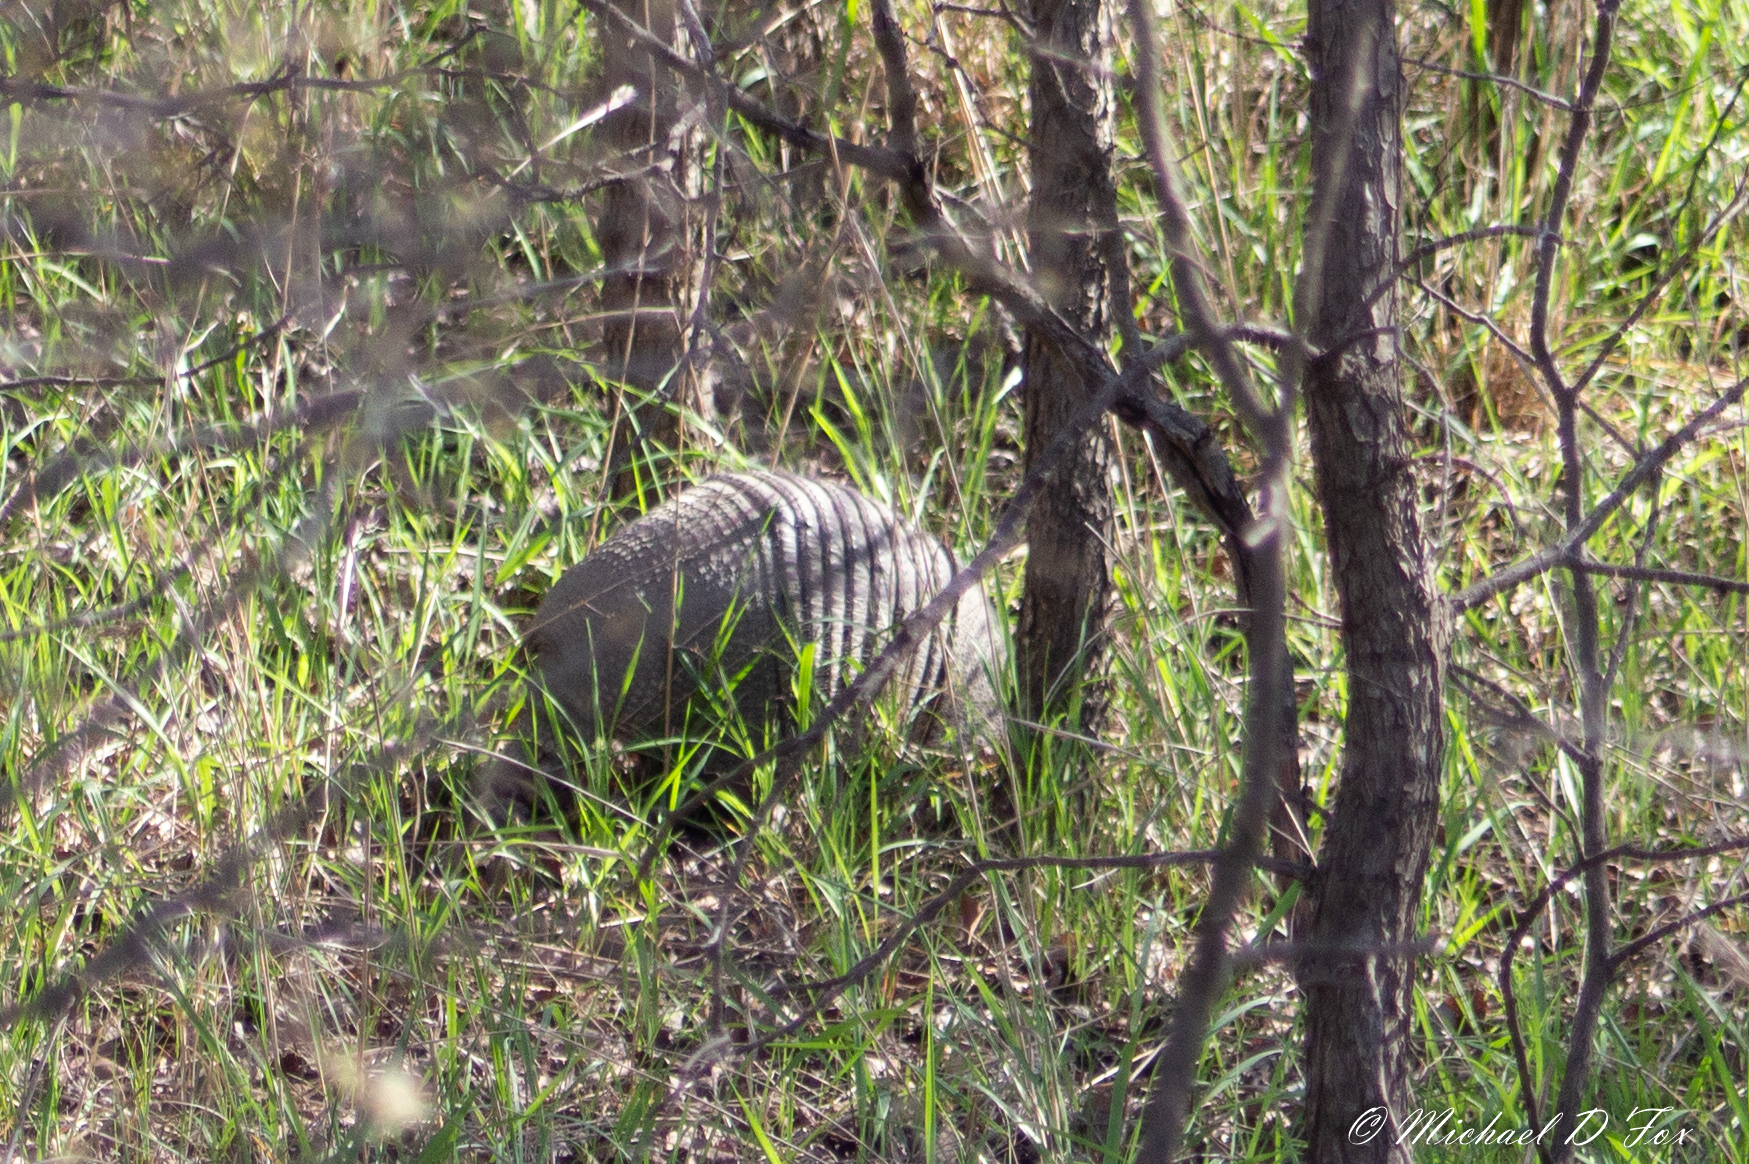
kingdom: Animalia
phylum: Chordata
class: Mammalia
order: Cingulata
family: Dasypodidae
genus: Dasypus
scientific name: Dasypus novemcinctus
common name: Nine-banded armadillo
